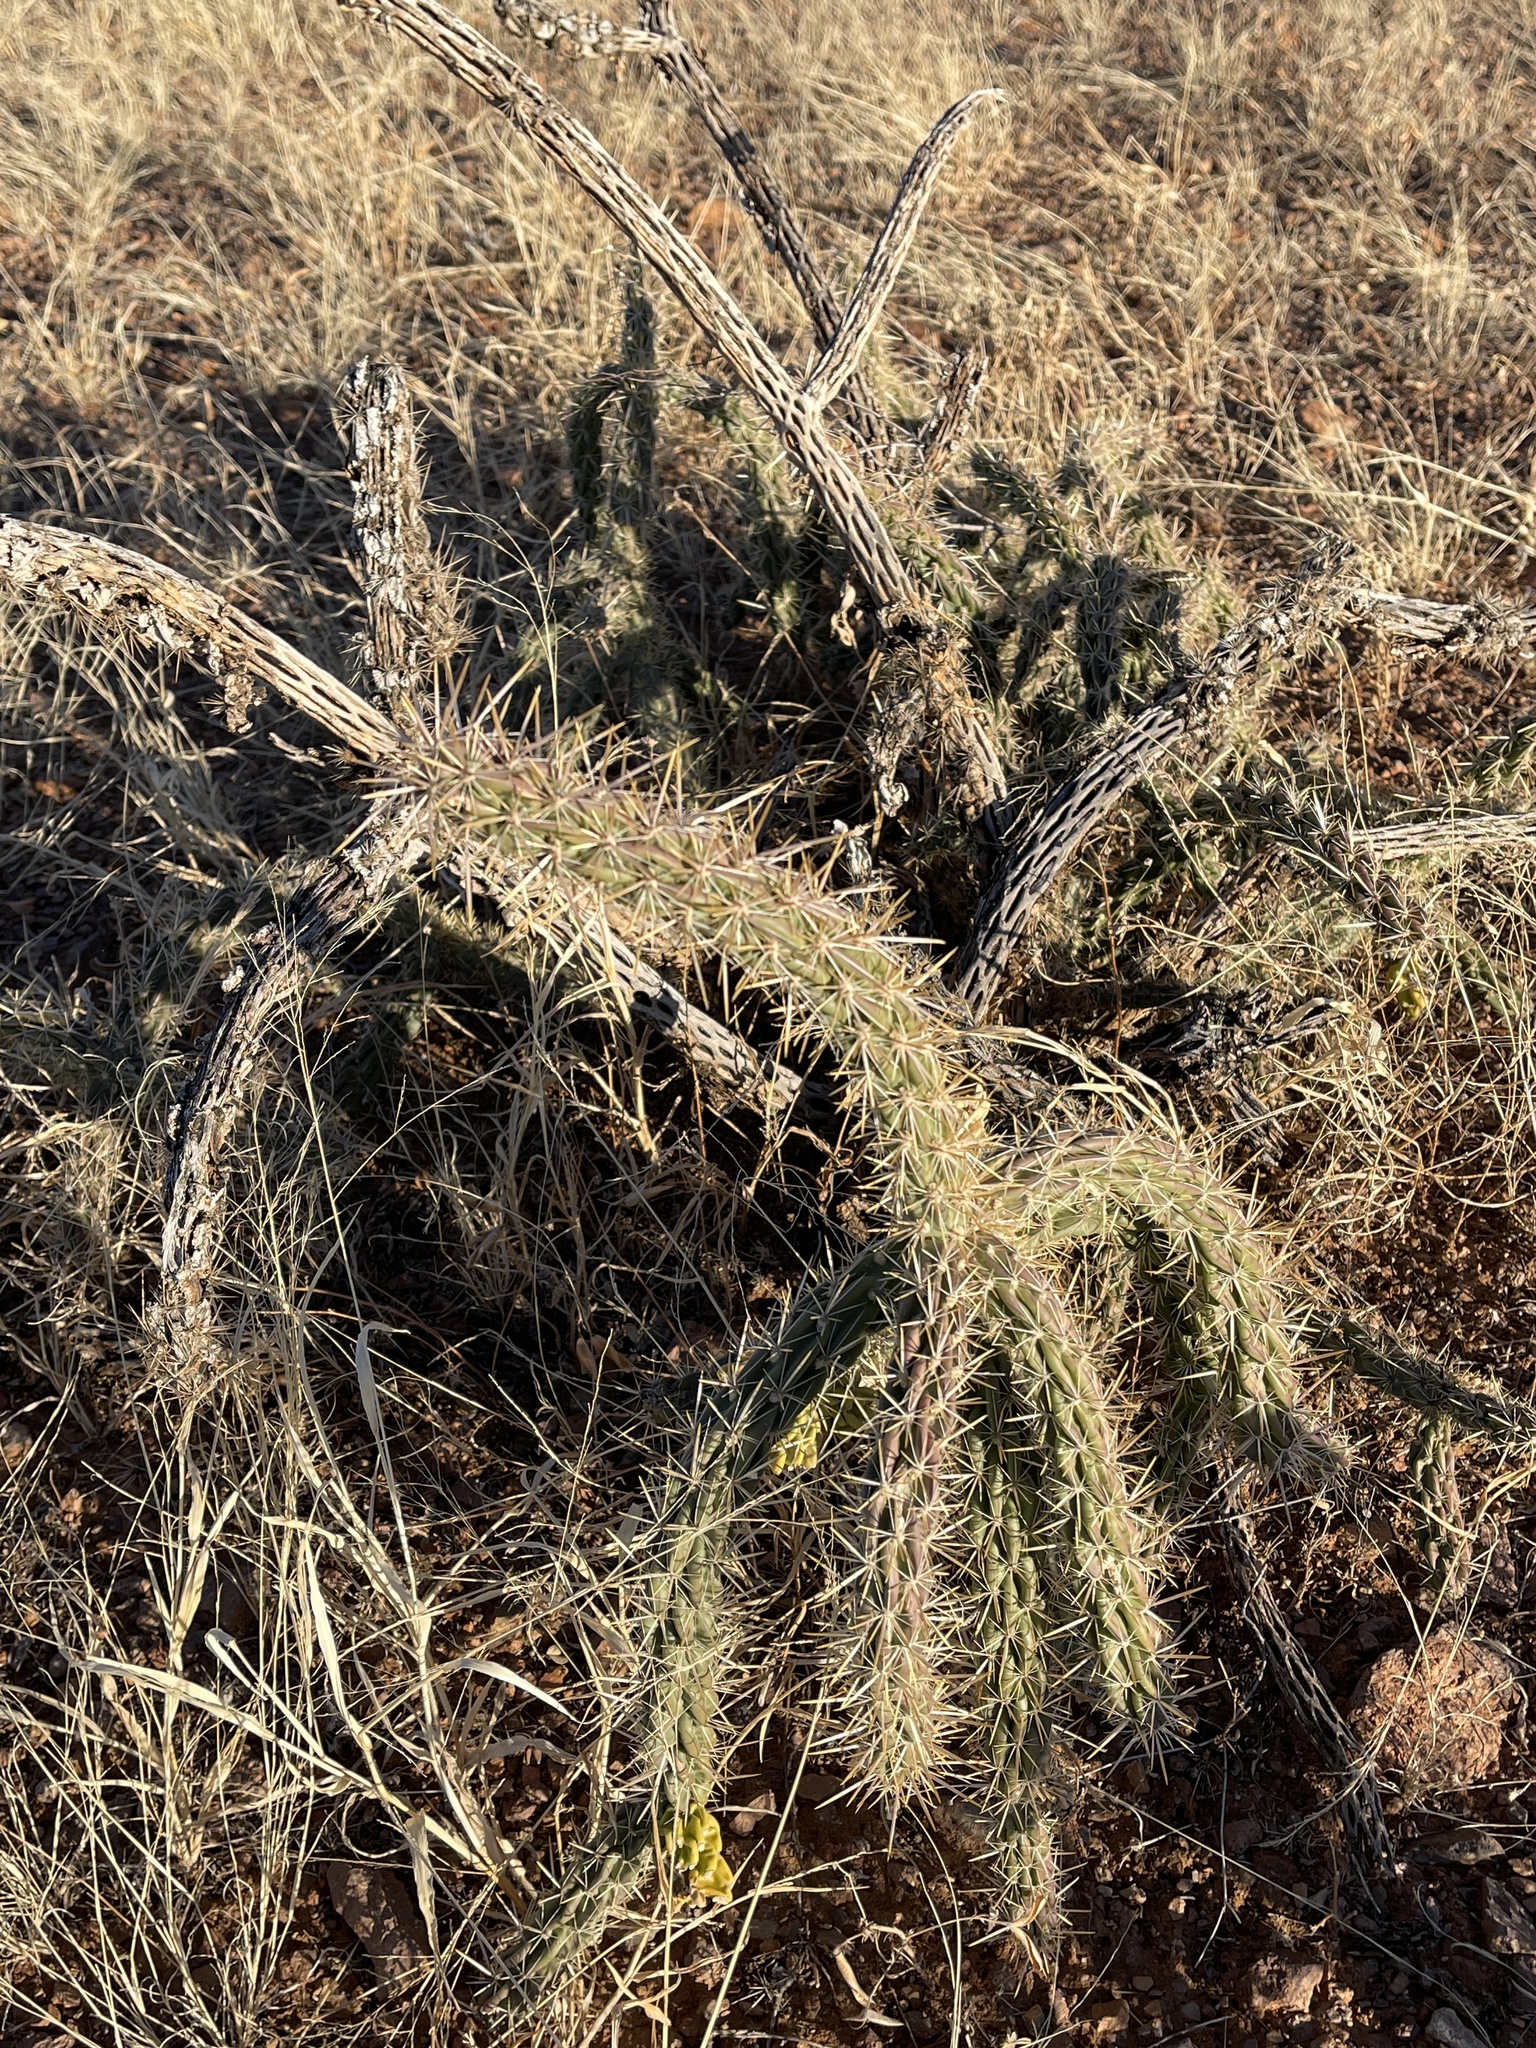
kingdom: Plantae
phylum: Tracheophyta
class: Magnoliopsida
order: Caryophyllales
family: Cactaceae
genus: Cylindropuntia
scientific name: Cylindropuntia imbricata
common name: Candelabrum cactus
